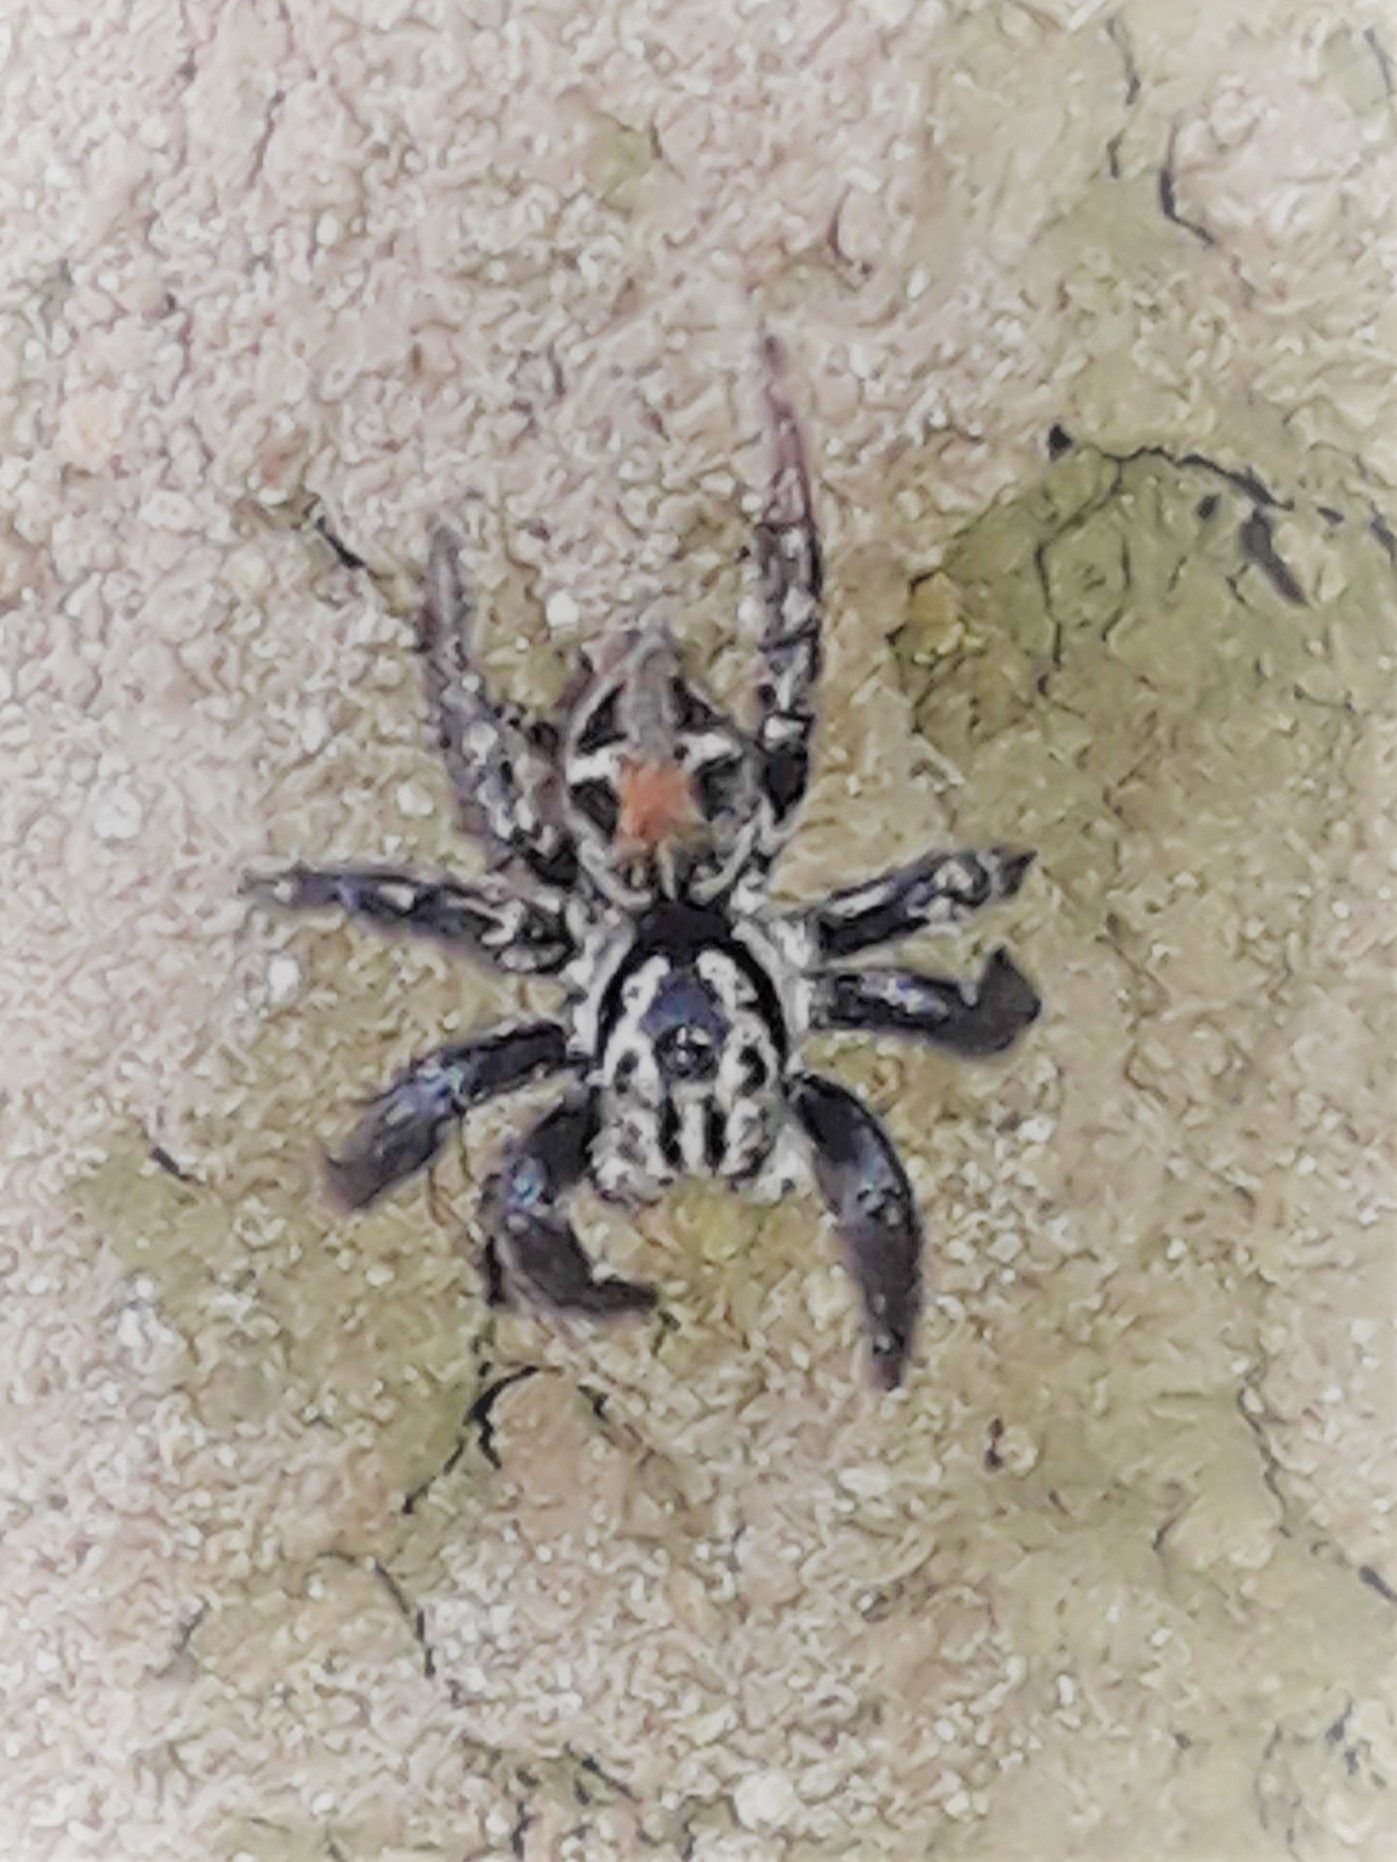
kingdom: Animalia
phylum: Arthropoda
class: Arachnida
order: Araneae
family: Salticidae
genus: Corythalia
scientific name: Corythalia opima
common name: Jumping spiders
